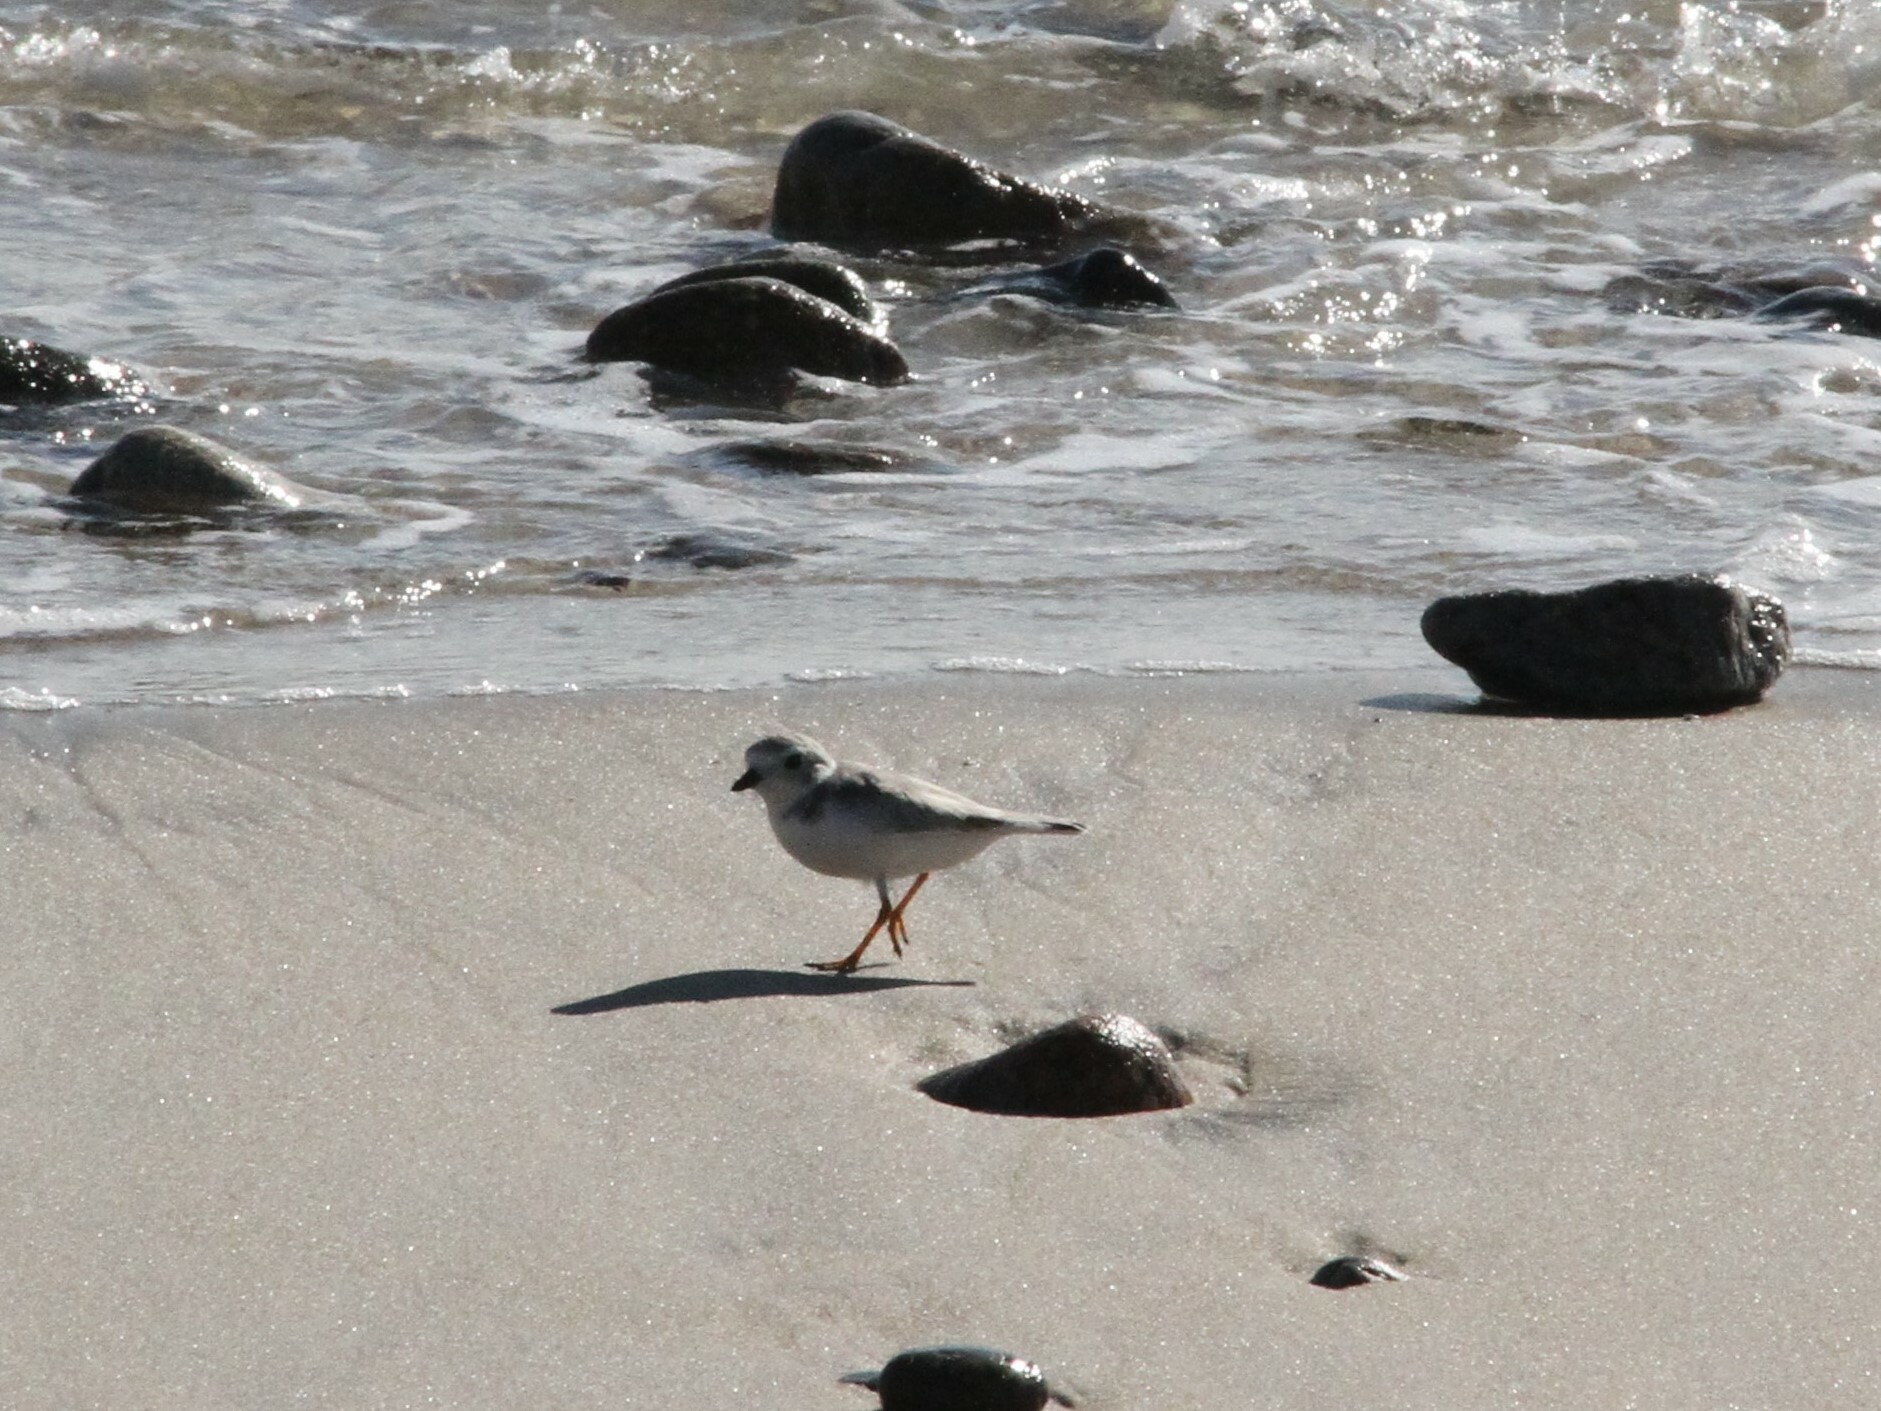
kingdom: Animalia
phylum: Chordata
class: Aves
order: Charadriiformes
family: Charadriidae
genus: Charadrius
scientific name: Charadrius melodus
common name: Piping plover
